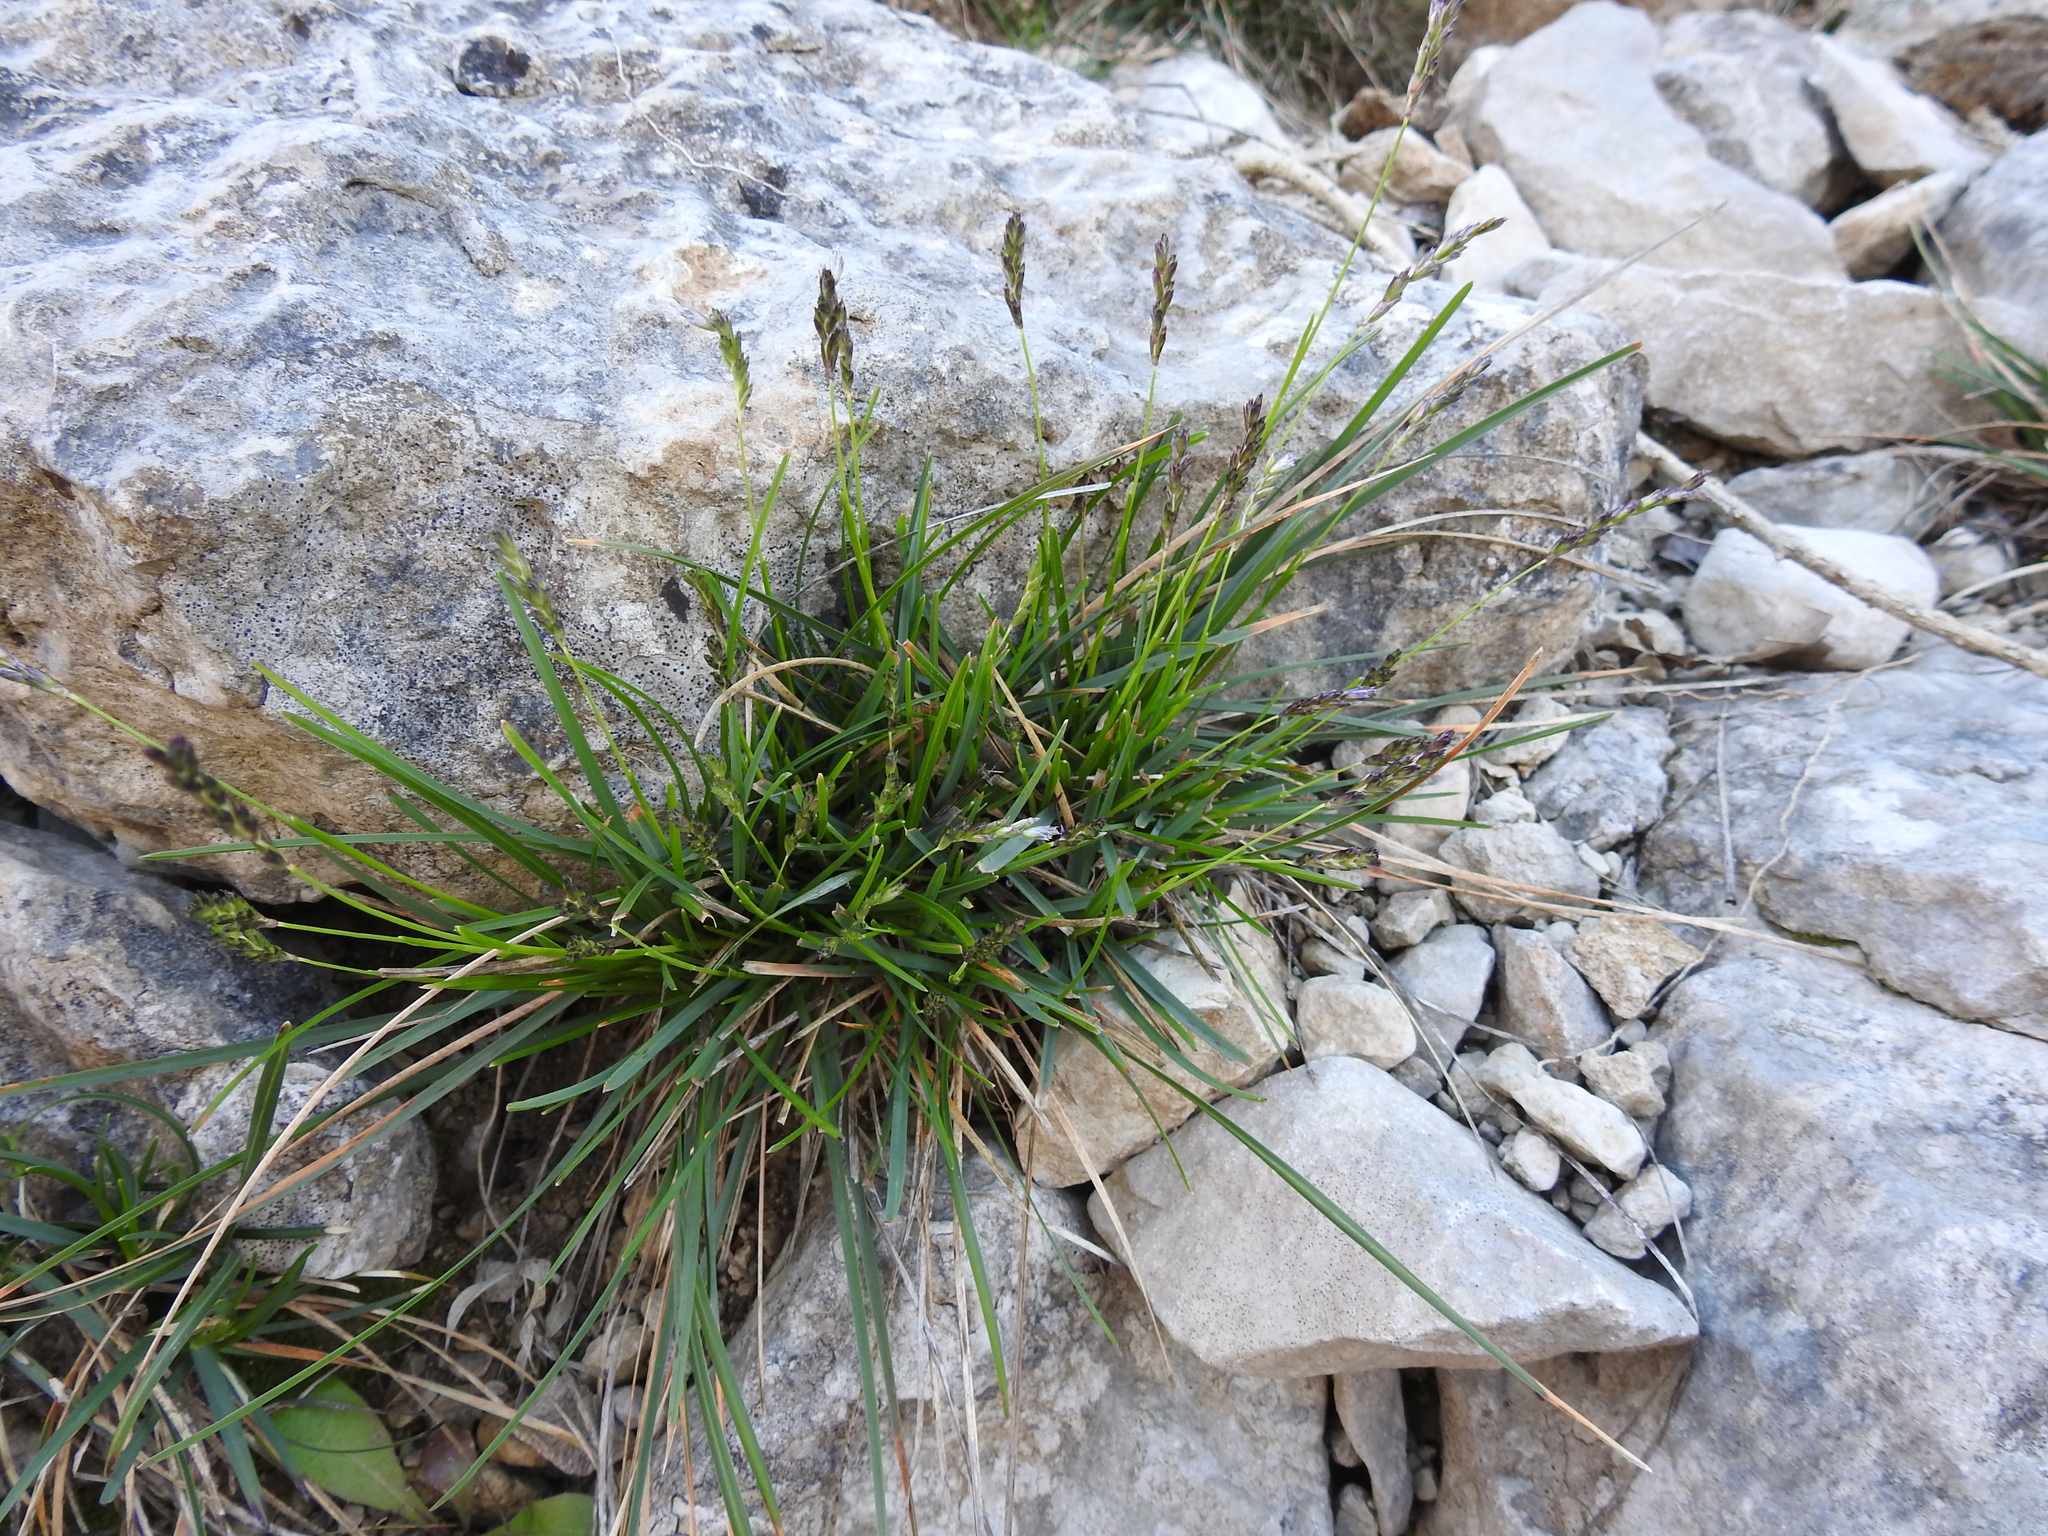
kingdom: Plantae
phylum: Tracheophyta
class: Liliopsida
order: Poales
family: Poaceae
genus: Sesleria
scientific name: Sesleria caerulea
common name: Blue moor-grass
